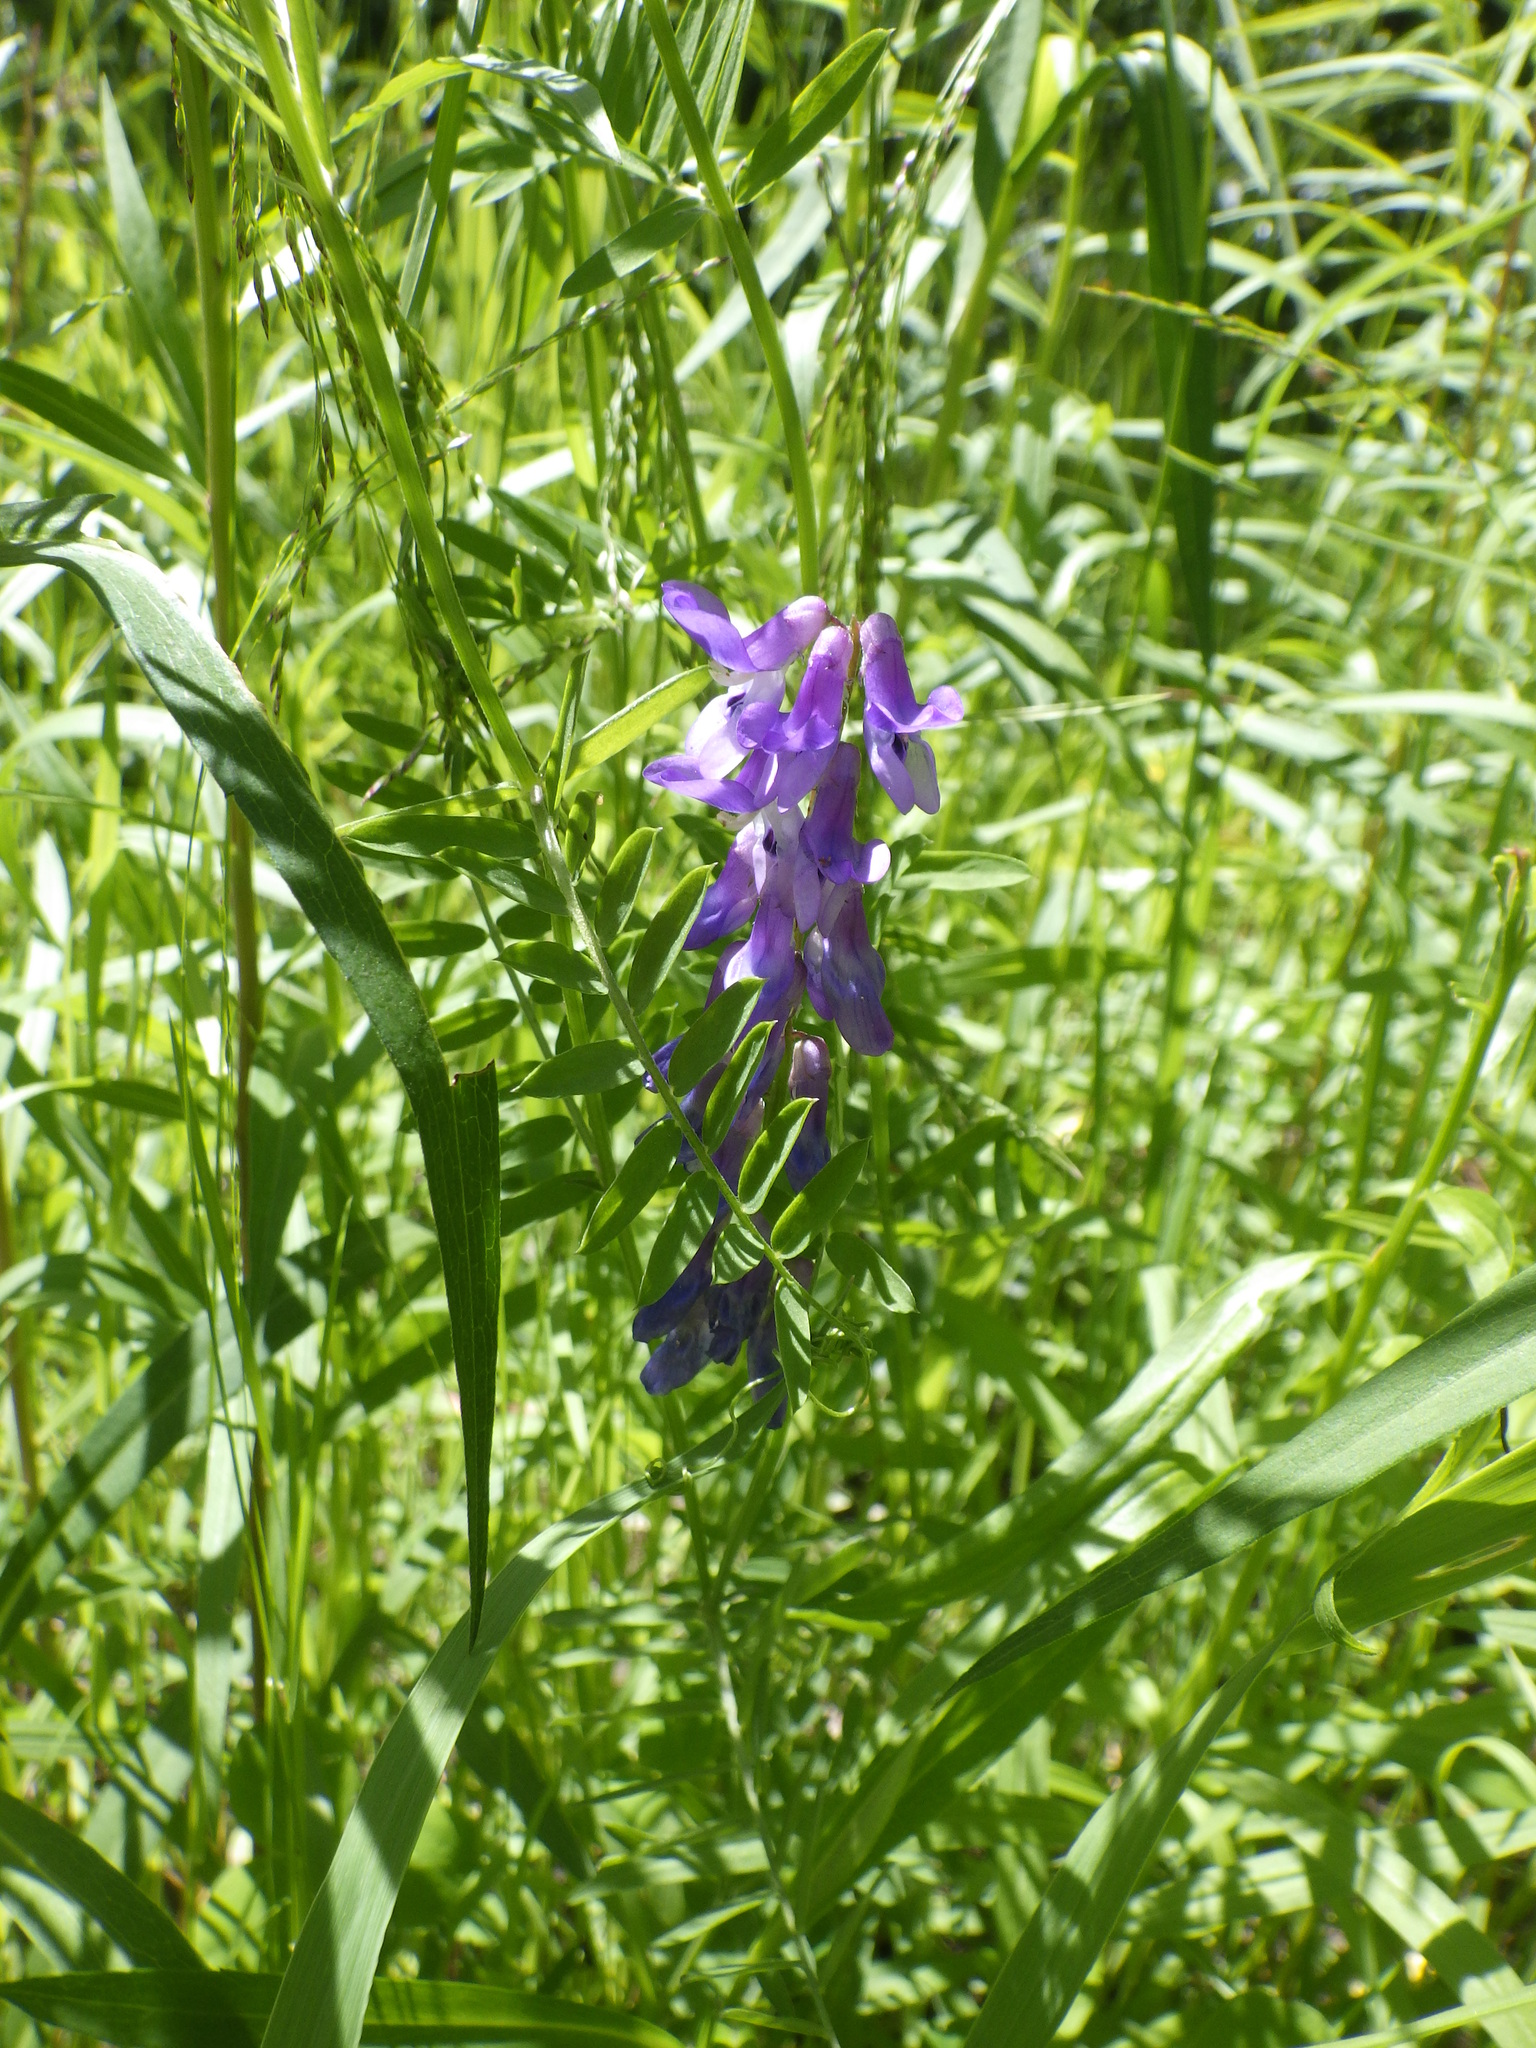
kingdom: Plantae
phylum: Tracheophyta
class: Magnoliopsida
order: Fabales
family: Fabaceae
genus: Vicia
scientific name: Vicia cracca
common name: Bird vetch
